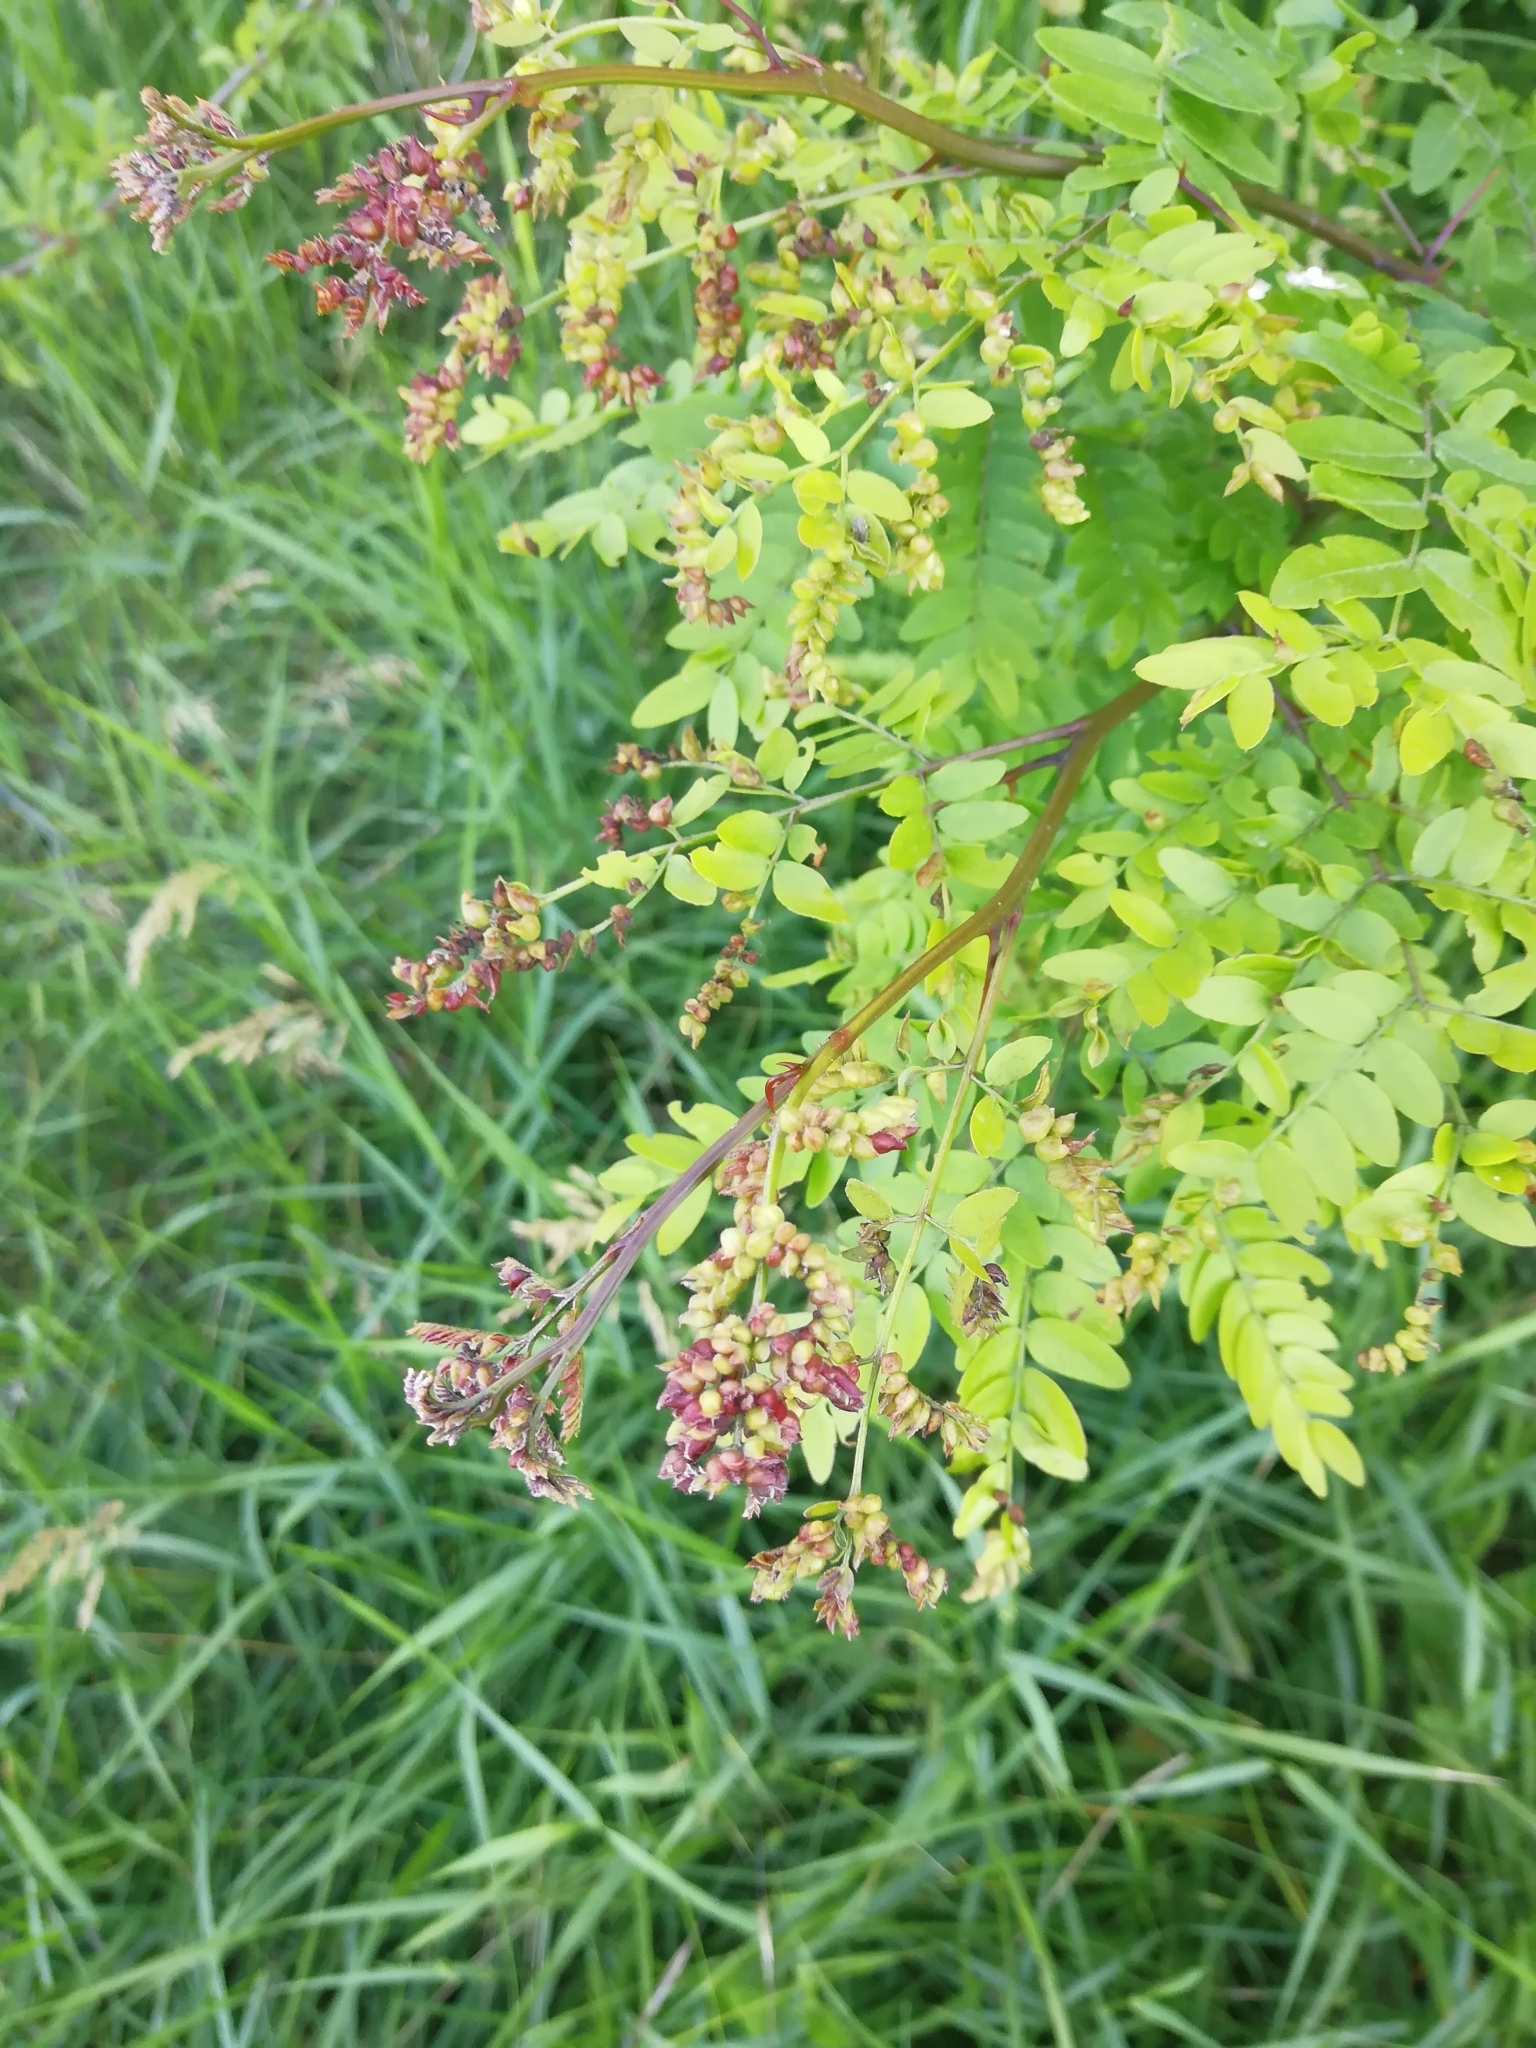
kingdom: Plantae
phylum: Tracheophyta
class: Magnoliopsida
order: Fabales
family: Fabaceae
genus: Amorpha
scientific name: Amorpha fruticosa
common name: False indigo
